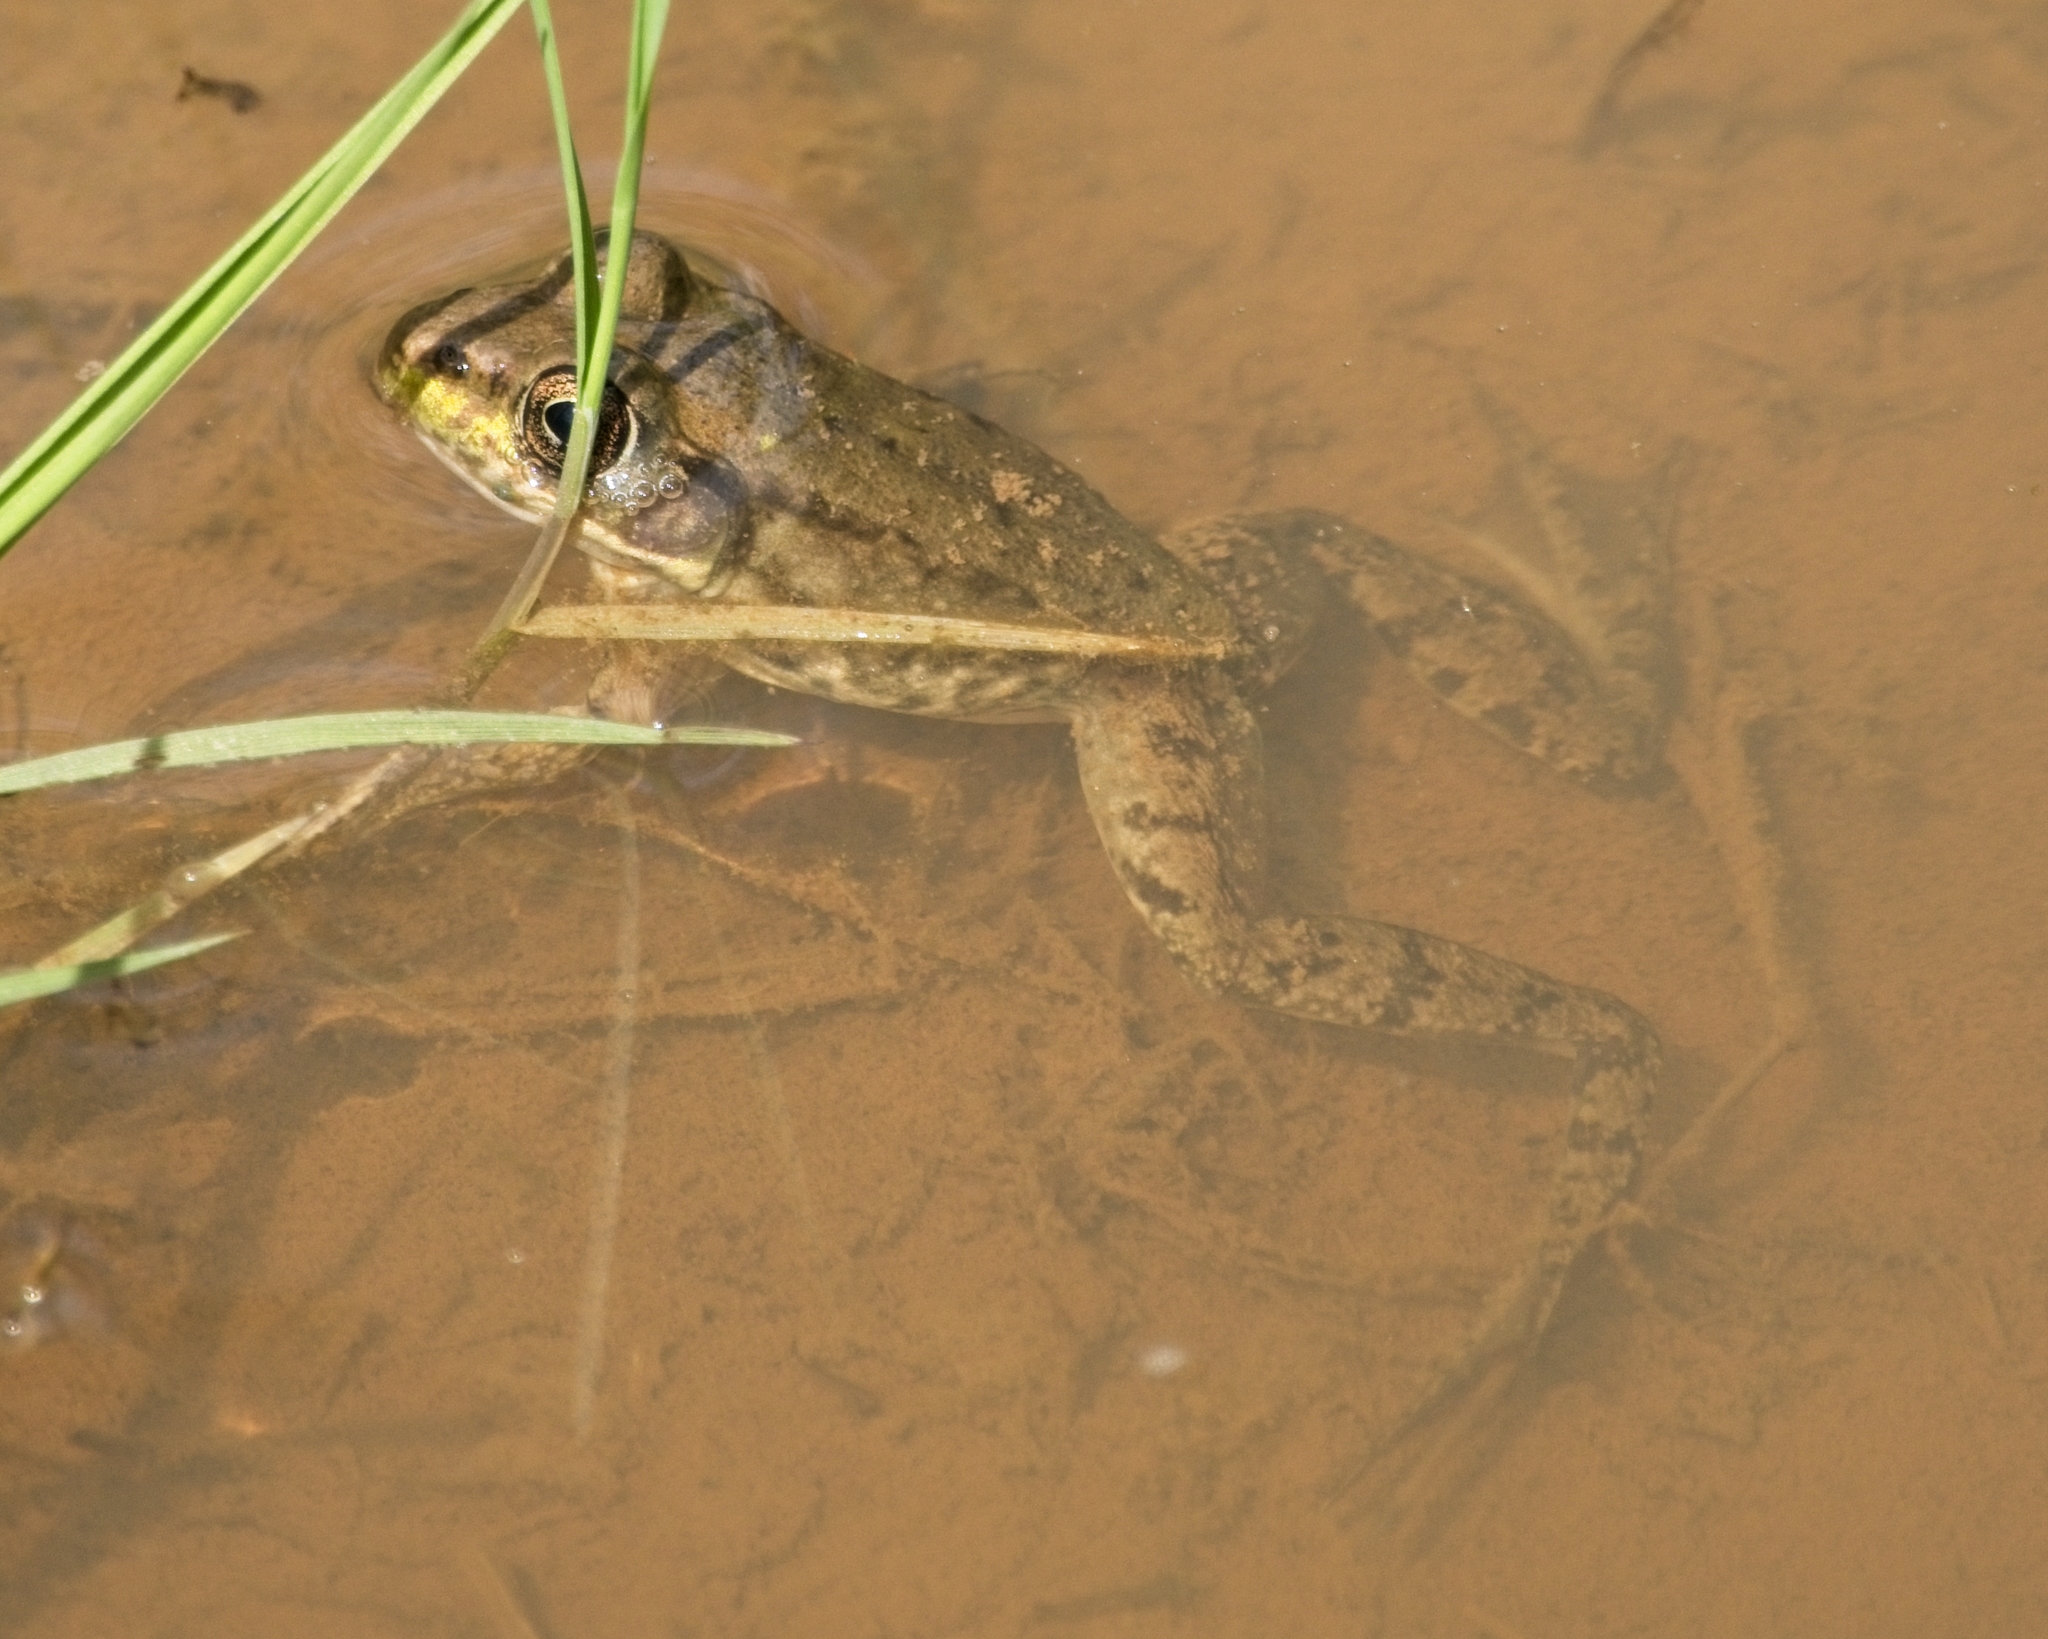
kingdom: Animalia
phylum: Chordata
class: Amphibia
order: Anura
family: Ranidae
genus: Lithobates
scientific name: Lithobates clamitans
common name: Green frog
